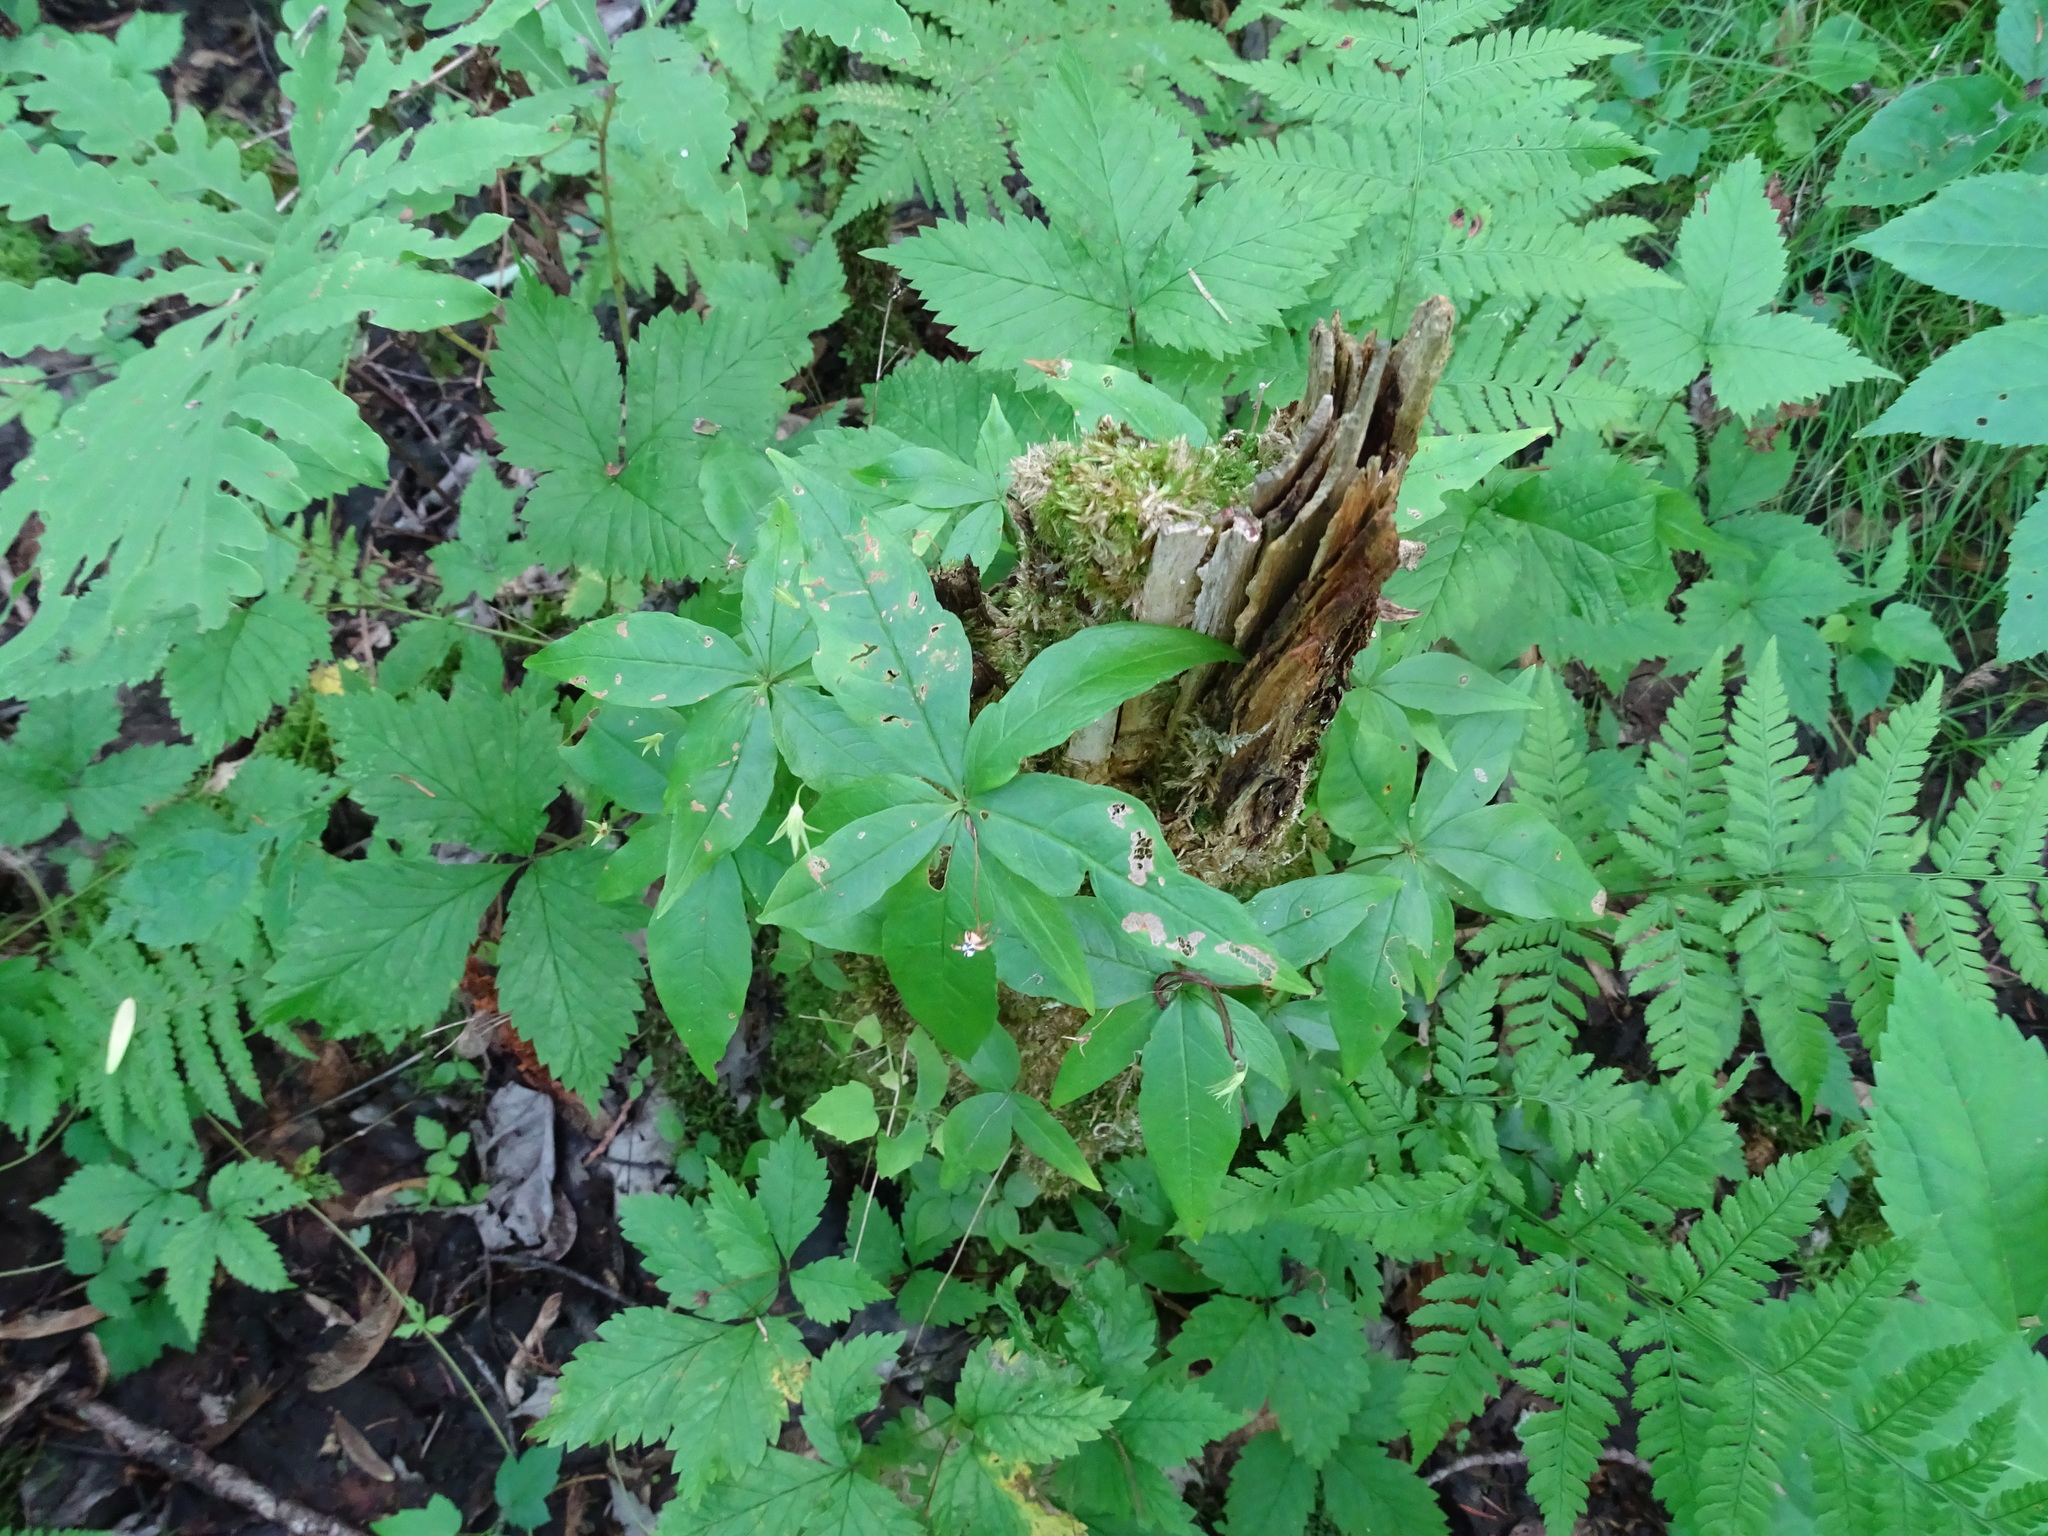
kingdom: Plantae
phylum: Tracheophyta
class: Magnoliopsida
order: Ericales
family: Primulaceae
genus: Lysimachia
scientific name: Lysimachia borealis
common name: American starflower
